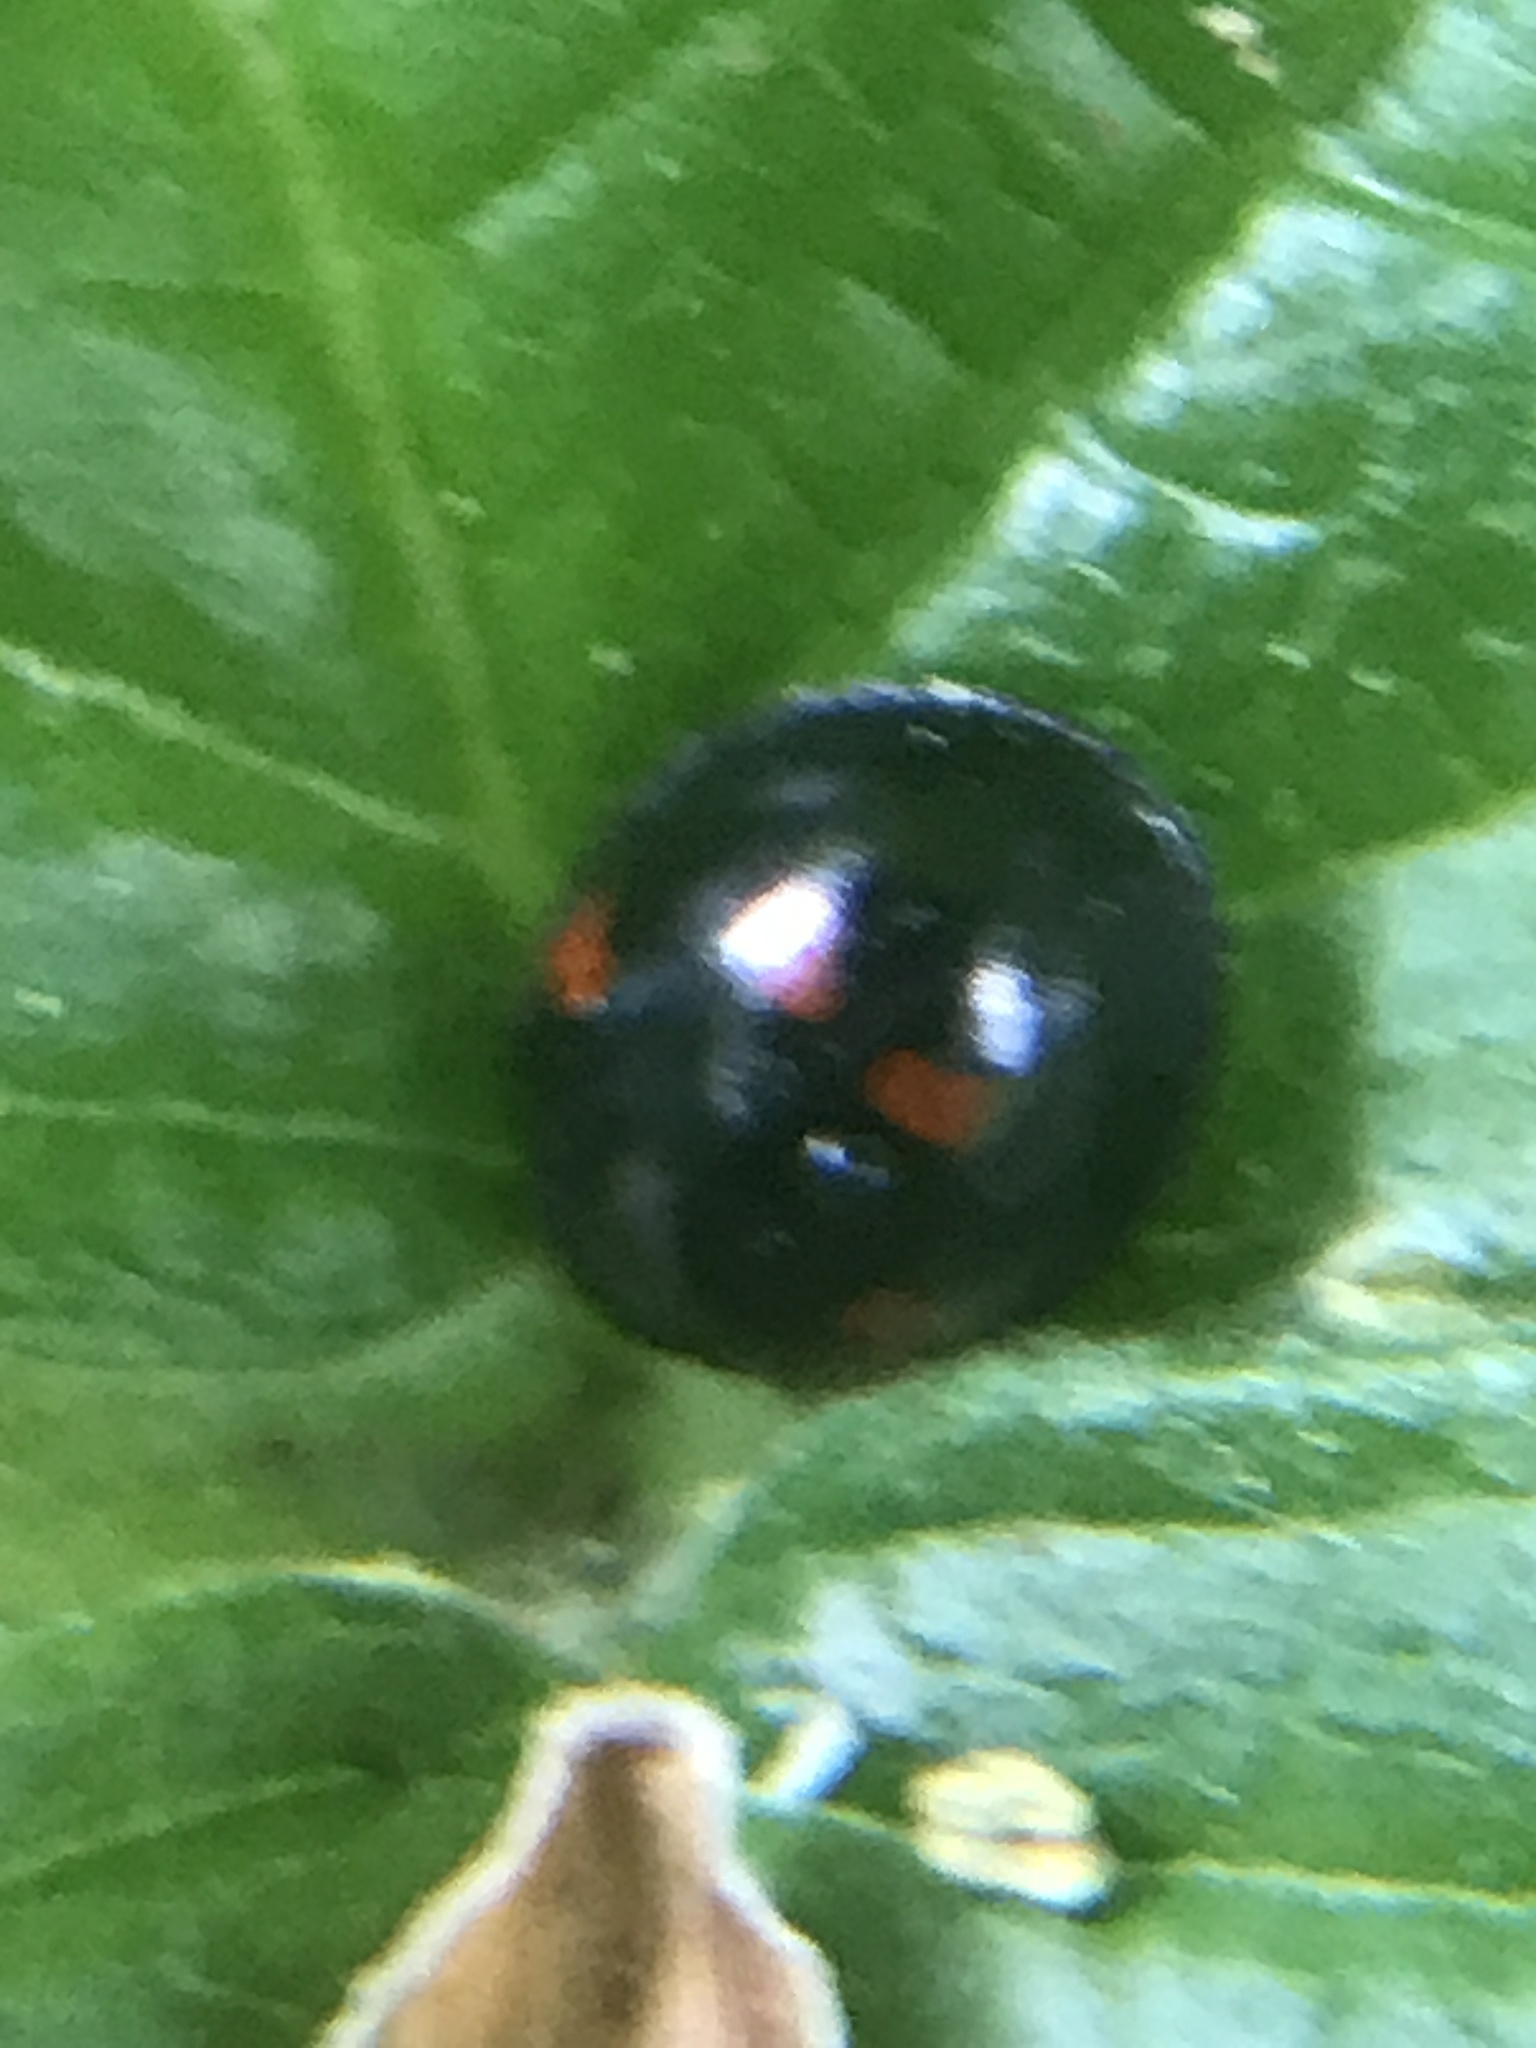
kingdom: Animalia
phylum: Arthropoda
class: Insecta
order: Coleoptera
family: Coccinellidae
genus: Brumus
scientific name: Brumus quadripustulatus
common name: Ladybird beetle
